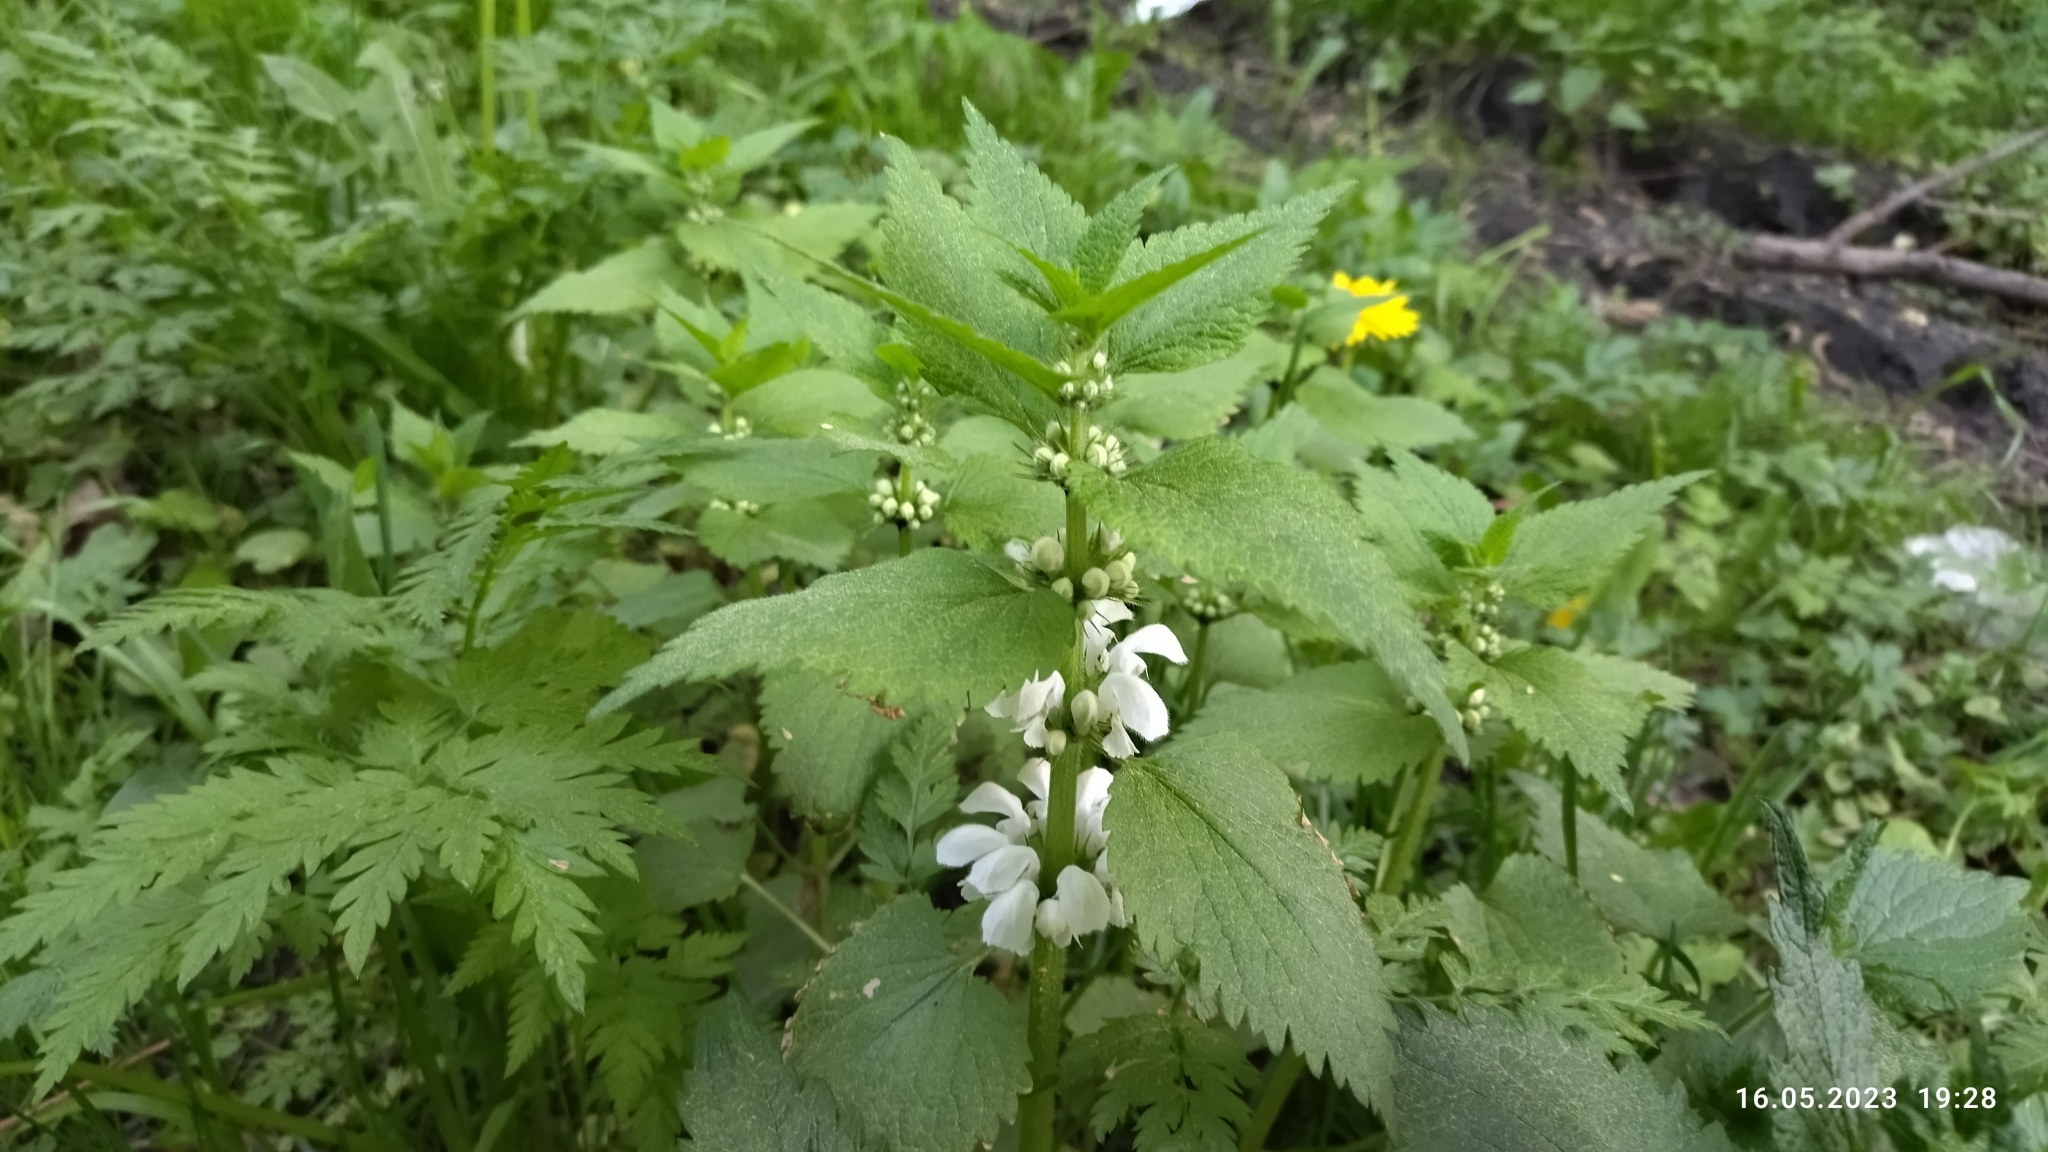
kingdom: Plantae
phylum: Tracheophyta
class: Magnoliopsida
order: Lamiales
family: Lamiaceae
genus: Lamium
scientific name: Lamium album
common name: White dead-nettle
